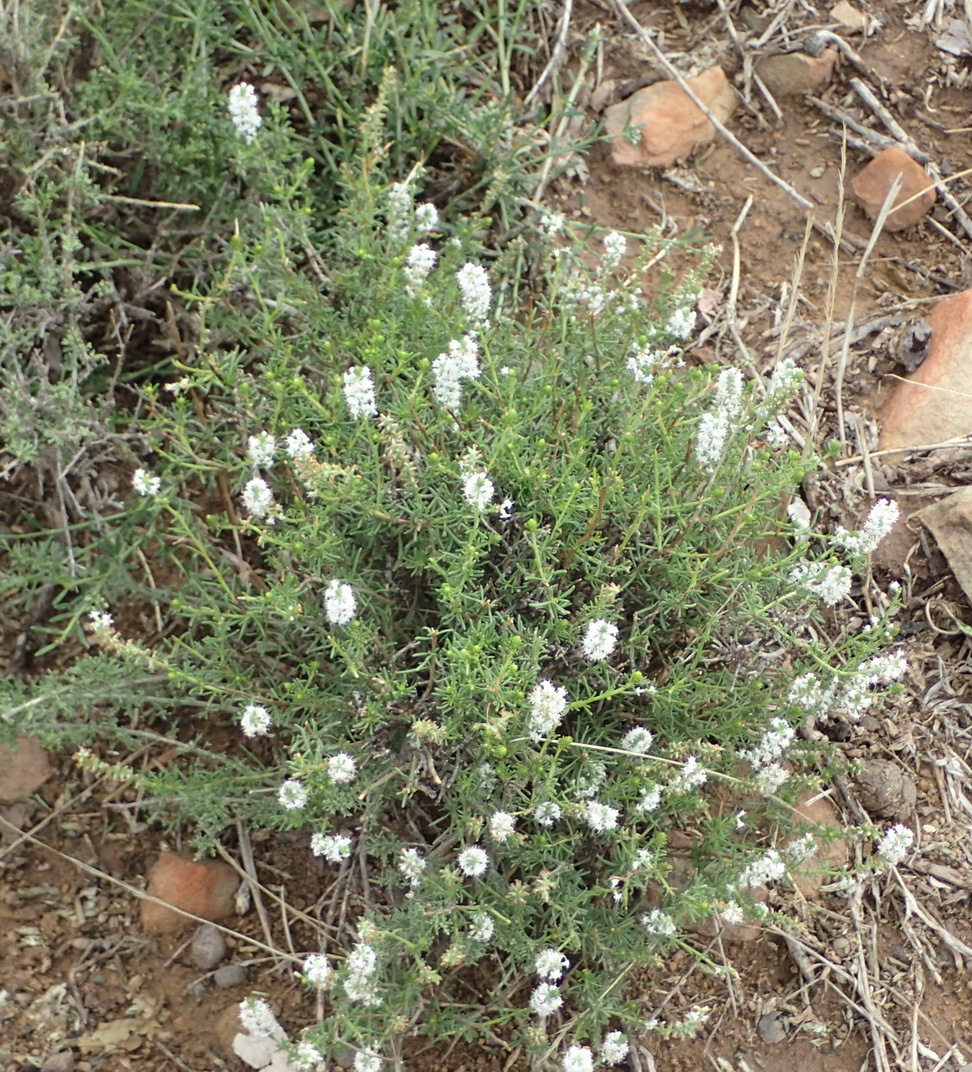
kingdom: Plantae
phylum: Tracheophyta
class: Magnoliopsida
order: Lamiales
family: Scrophulariaceae
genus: Selago
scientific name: Selago geniculata
